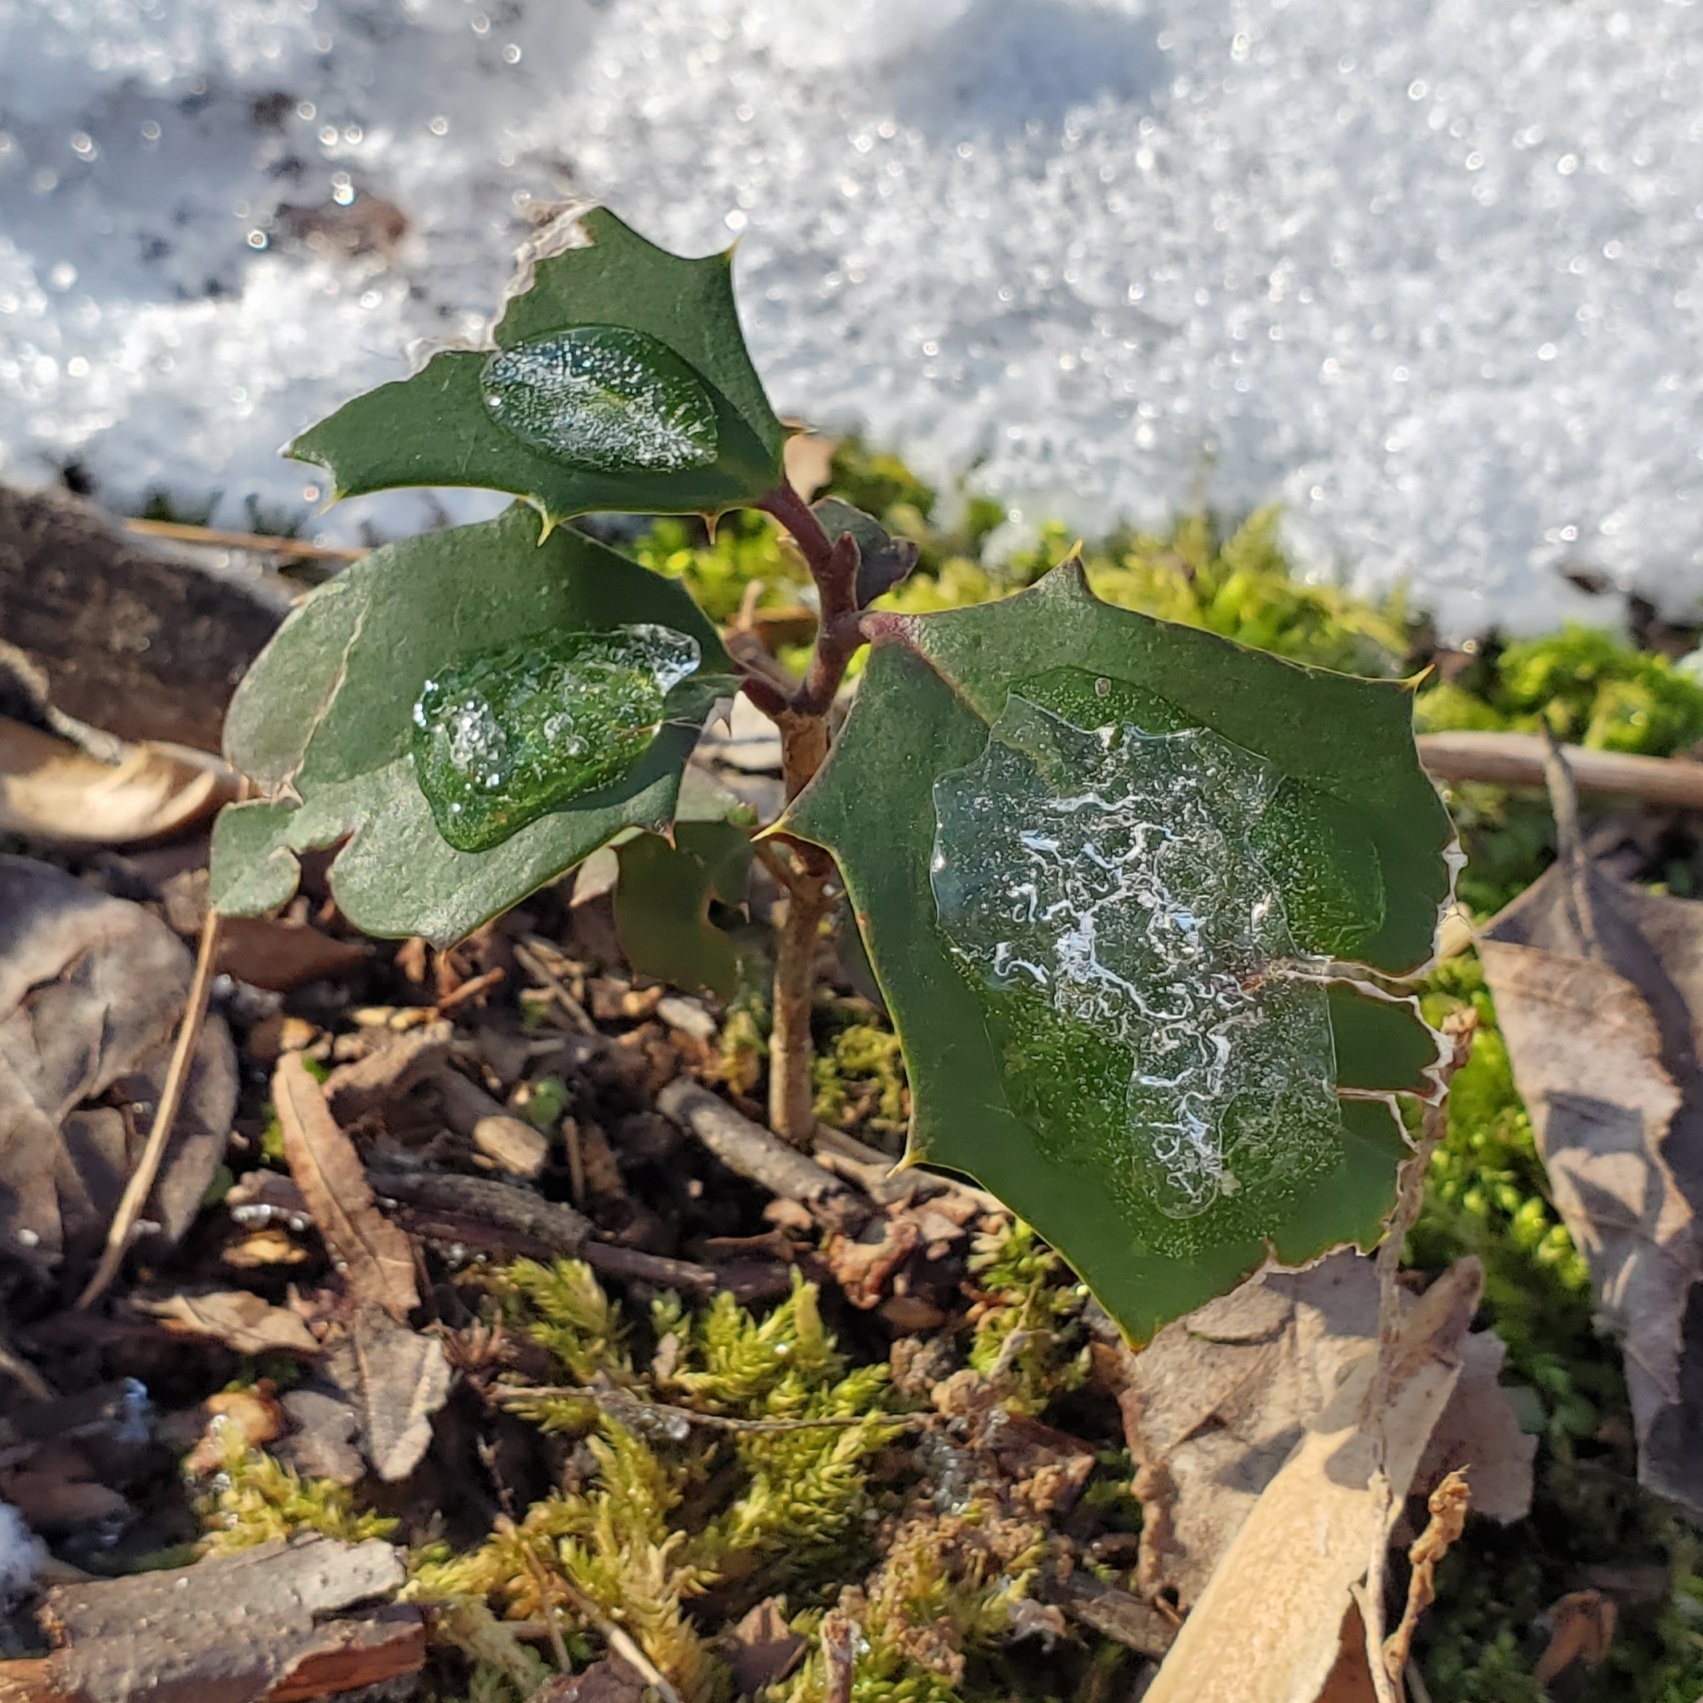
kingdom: Plantae
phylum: Tracheophyta
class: Magnoliopsida
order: Aquifoliales
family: Aquifoliaceae
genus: Ilex
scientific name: Ilex opaca
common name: American holly
